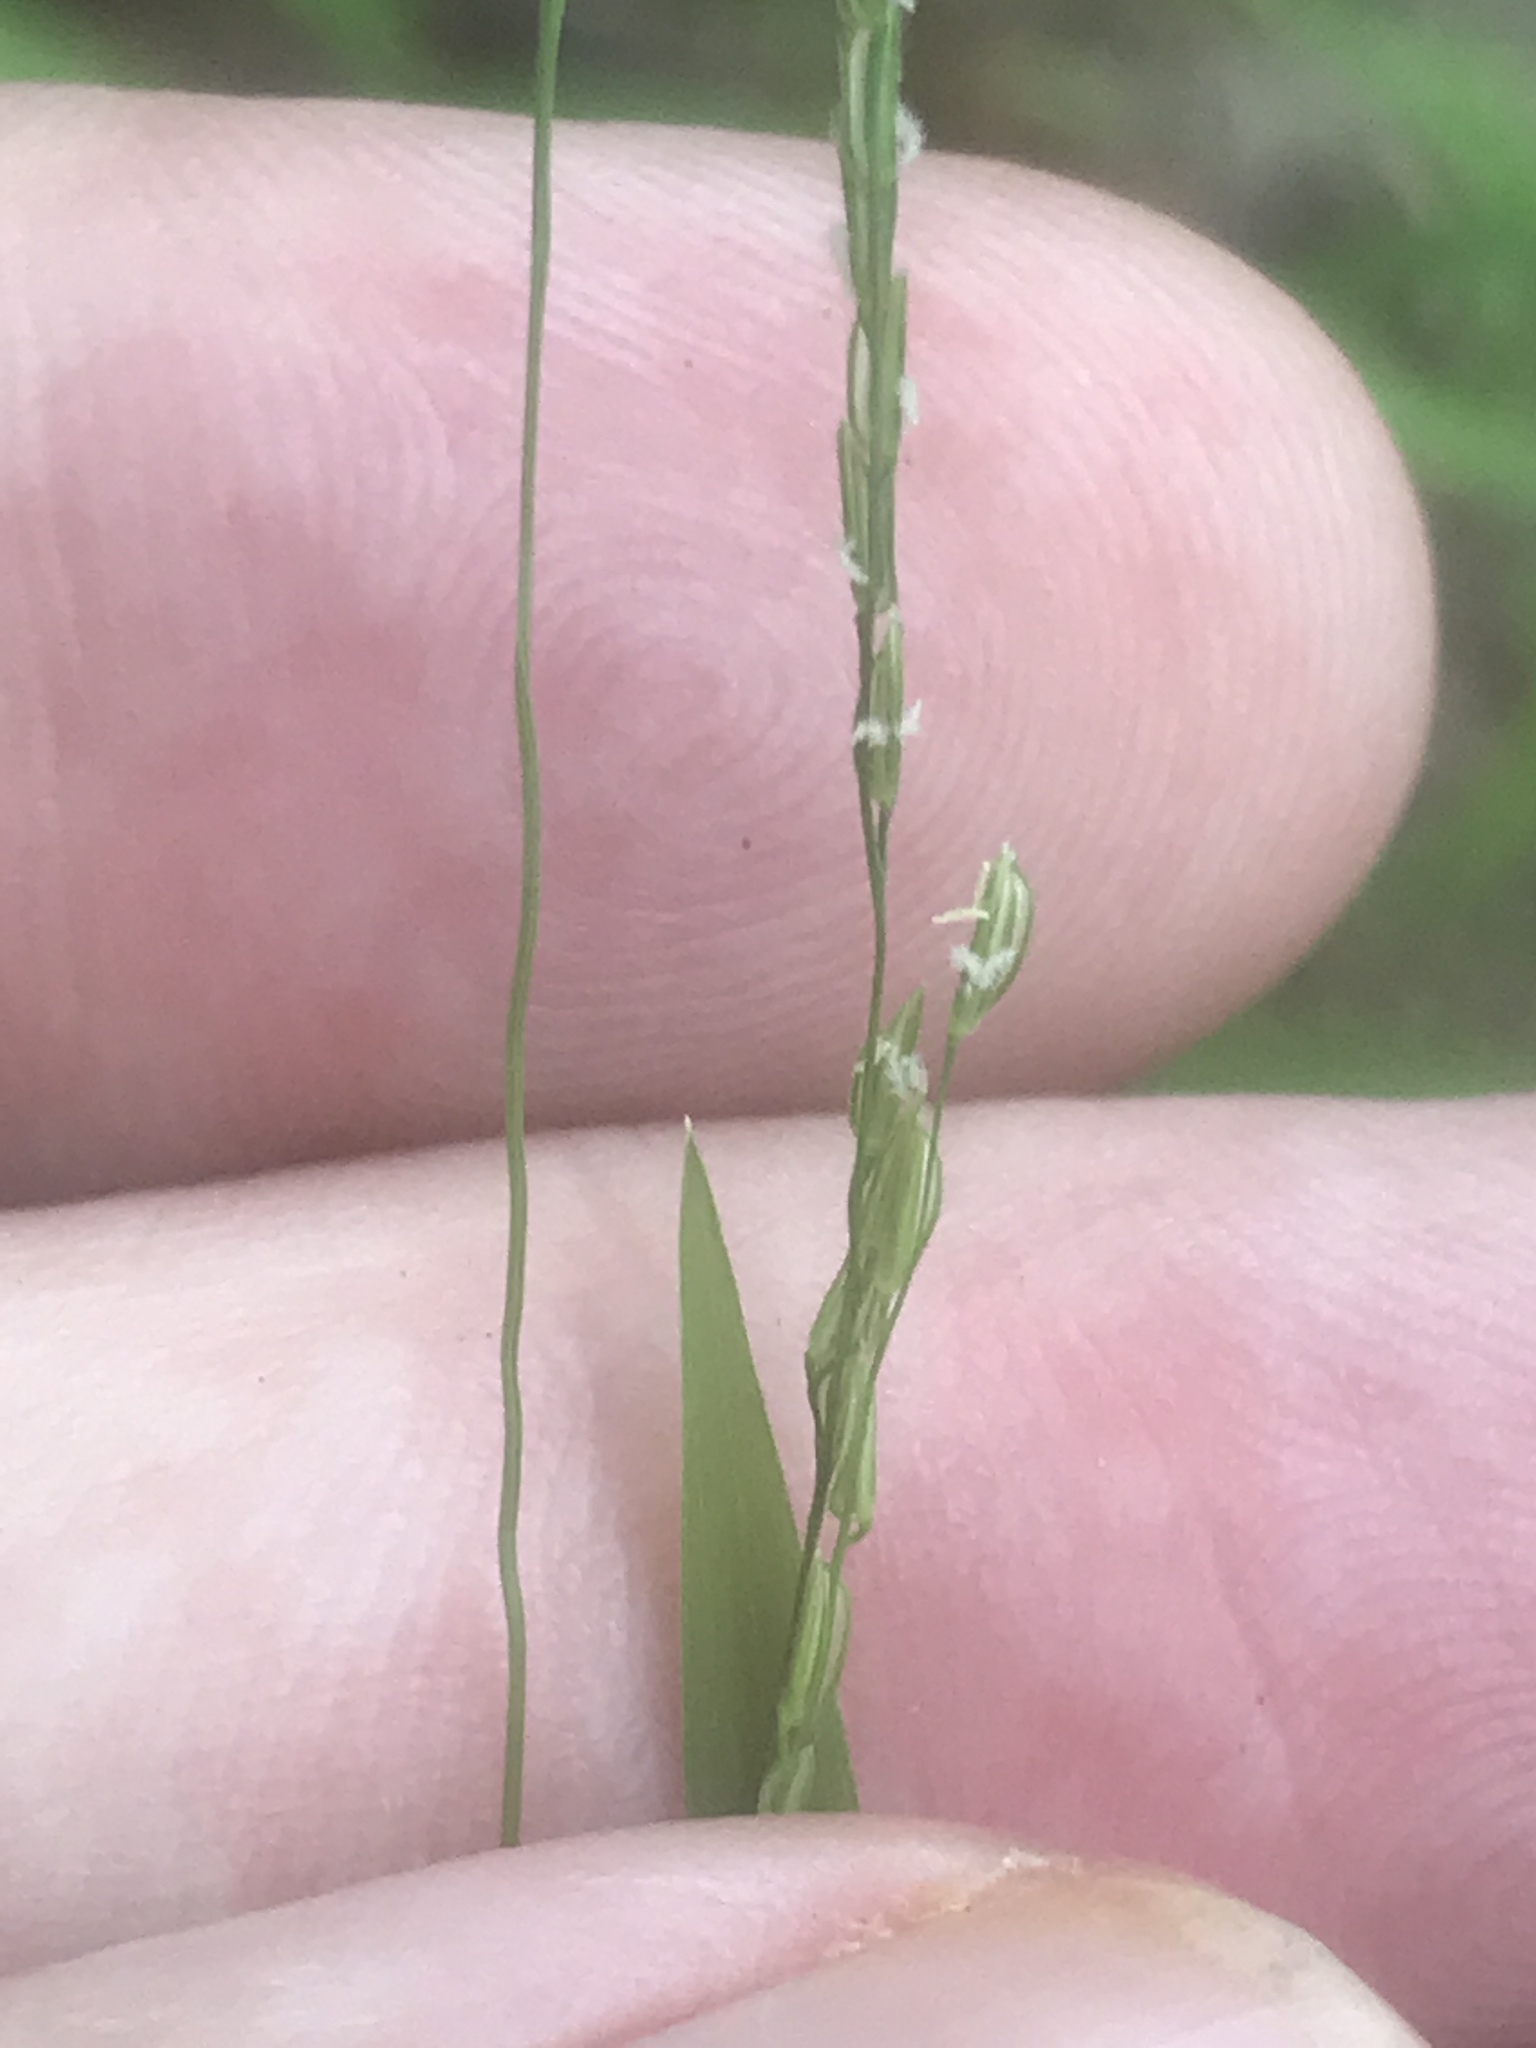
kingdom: Plantae
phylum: Tracheophyta
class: Liliopsida
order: Poales
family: Poaceae
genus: Leersia
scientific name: Leersia virginica
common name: White cutgrass
